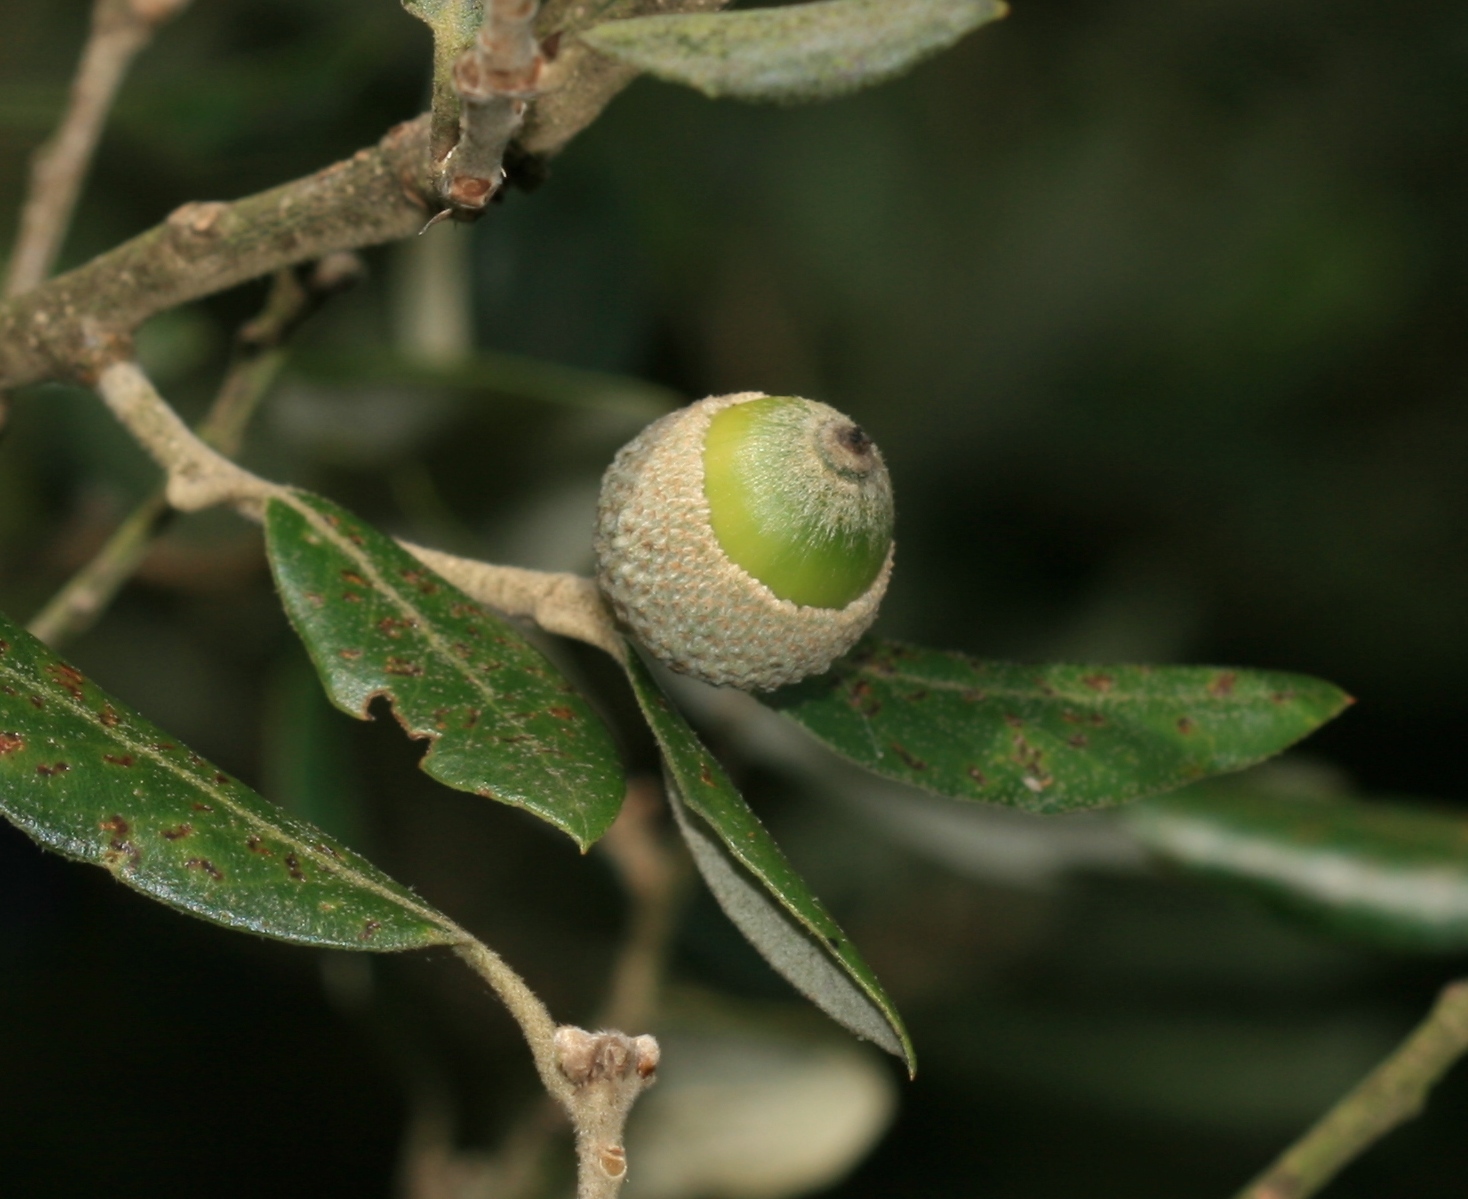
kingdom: Plantae
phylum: Tracheophyta
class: Magnoliopsida
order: Fagales
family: Fagaceae
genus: Quercus
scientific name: Quercus ilex
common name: Evergreen oak
